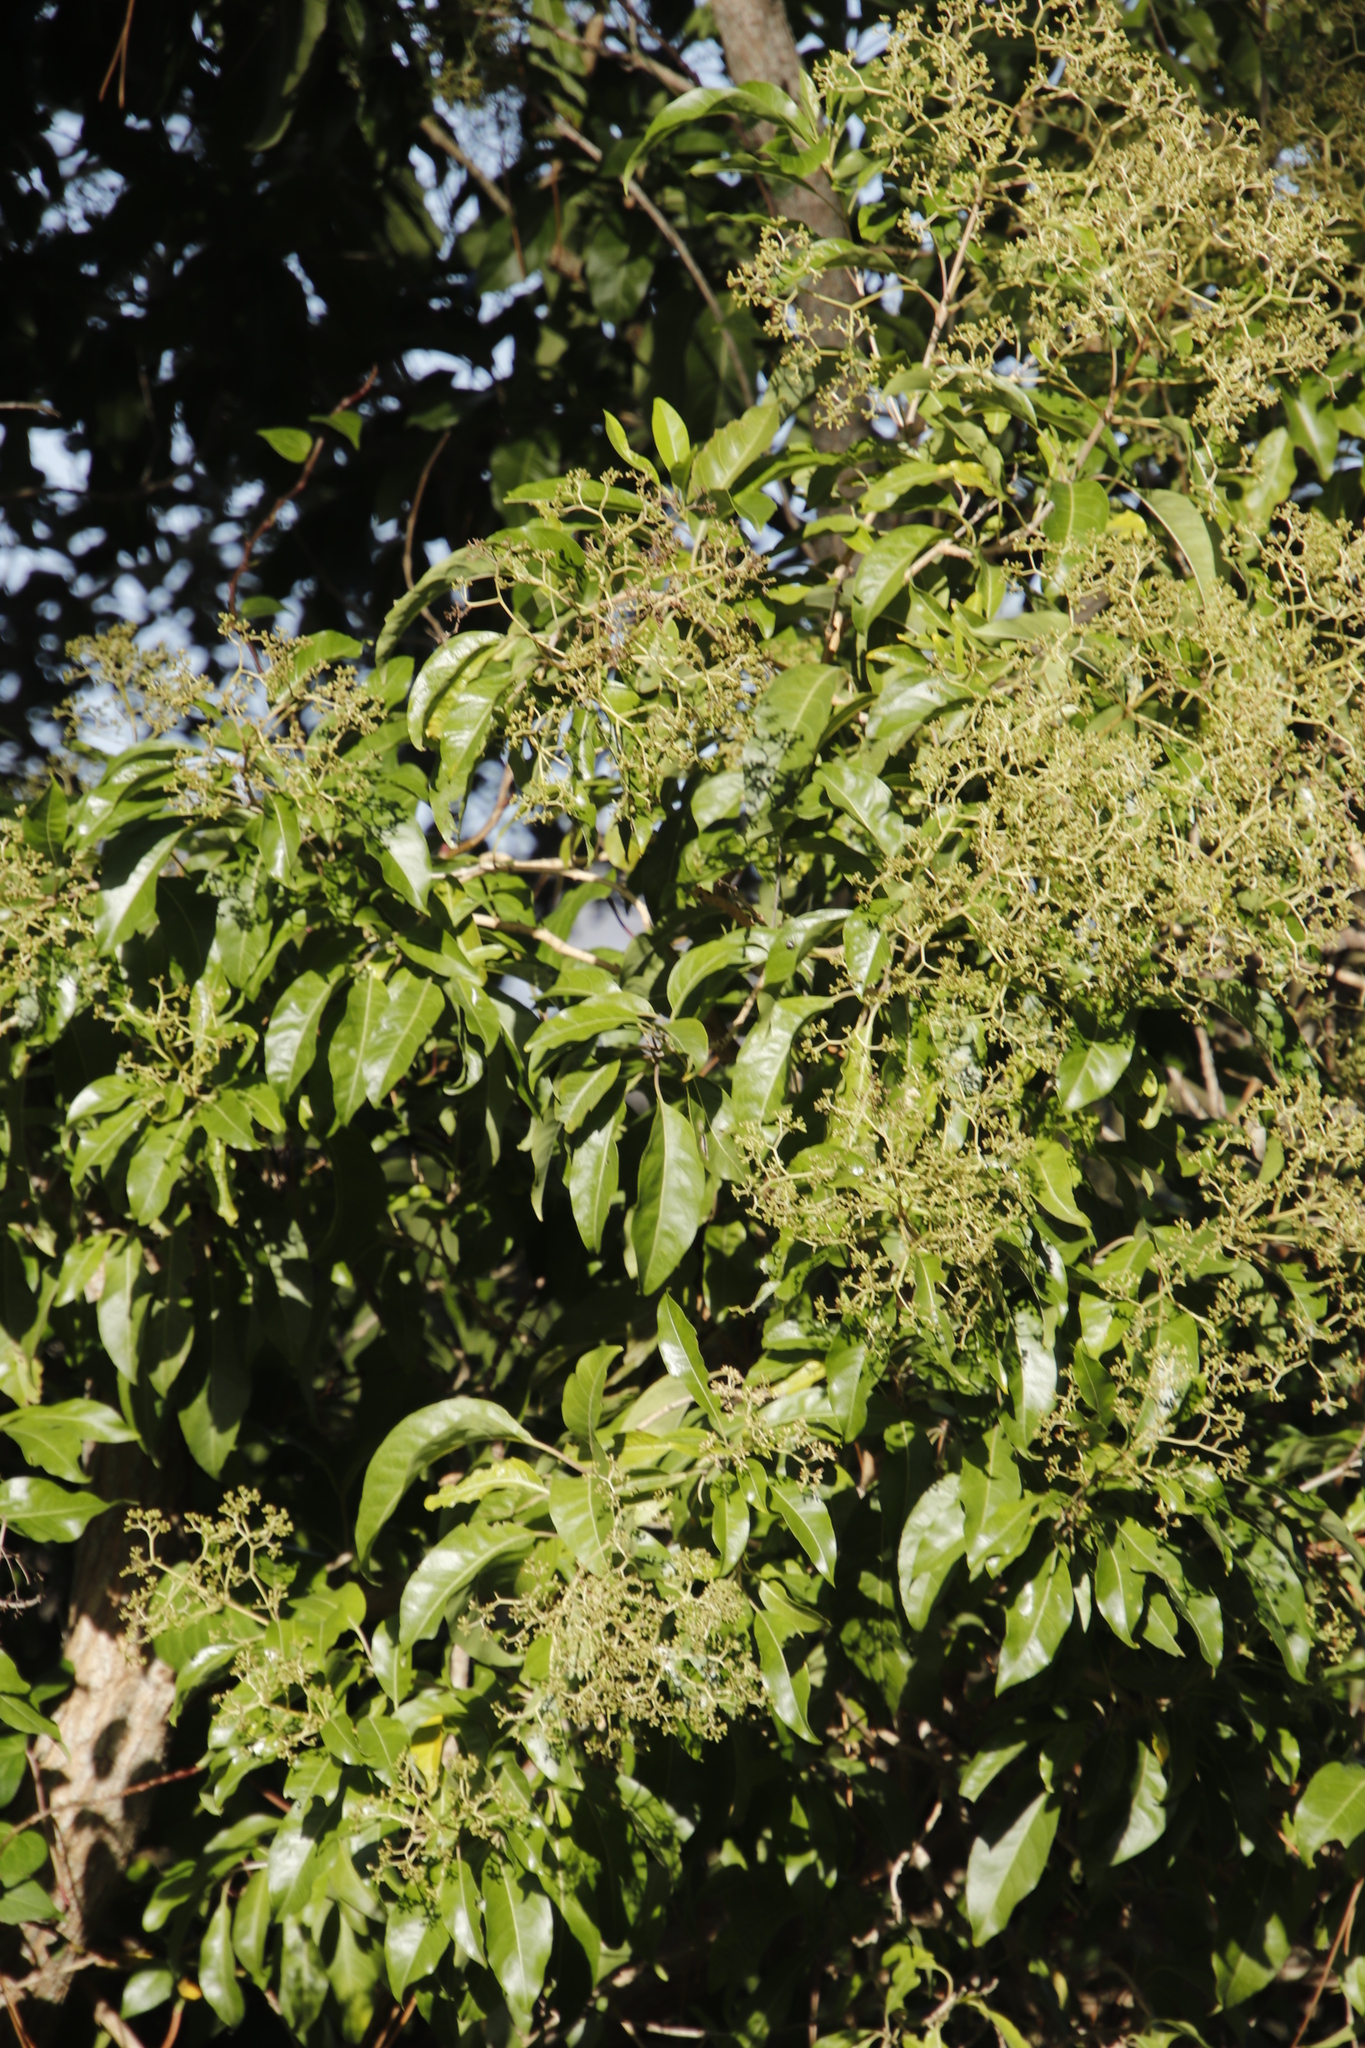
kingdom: Plantae
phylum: Tracheophyta
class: Magnoliopsida
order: Lamiales
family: Stilbaceae
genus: Nuxia
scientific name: Nuxia floribunda
